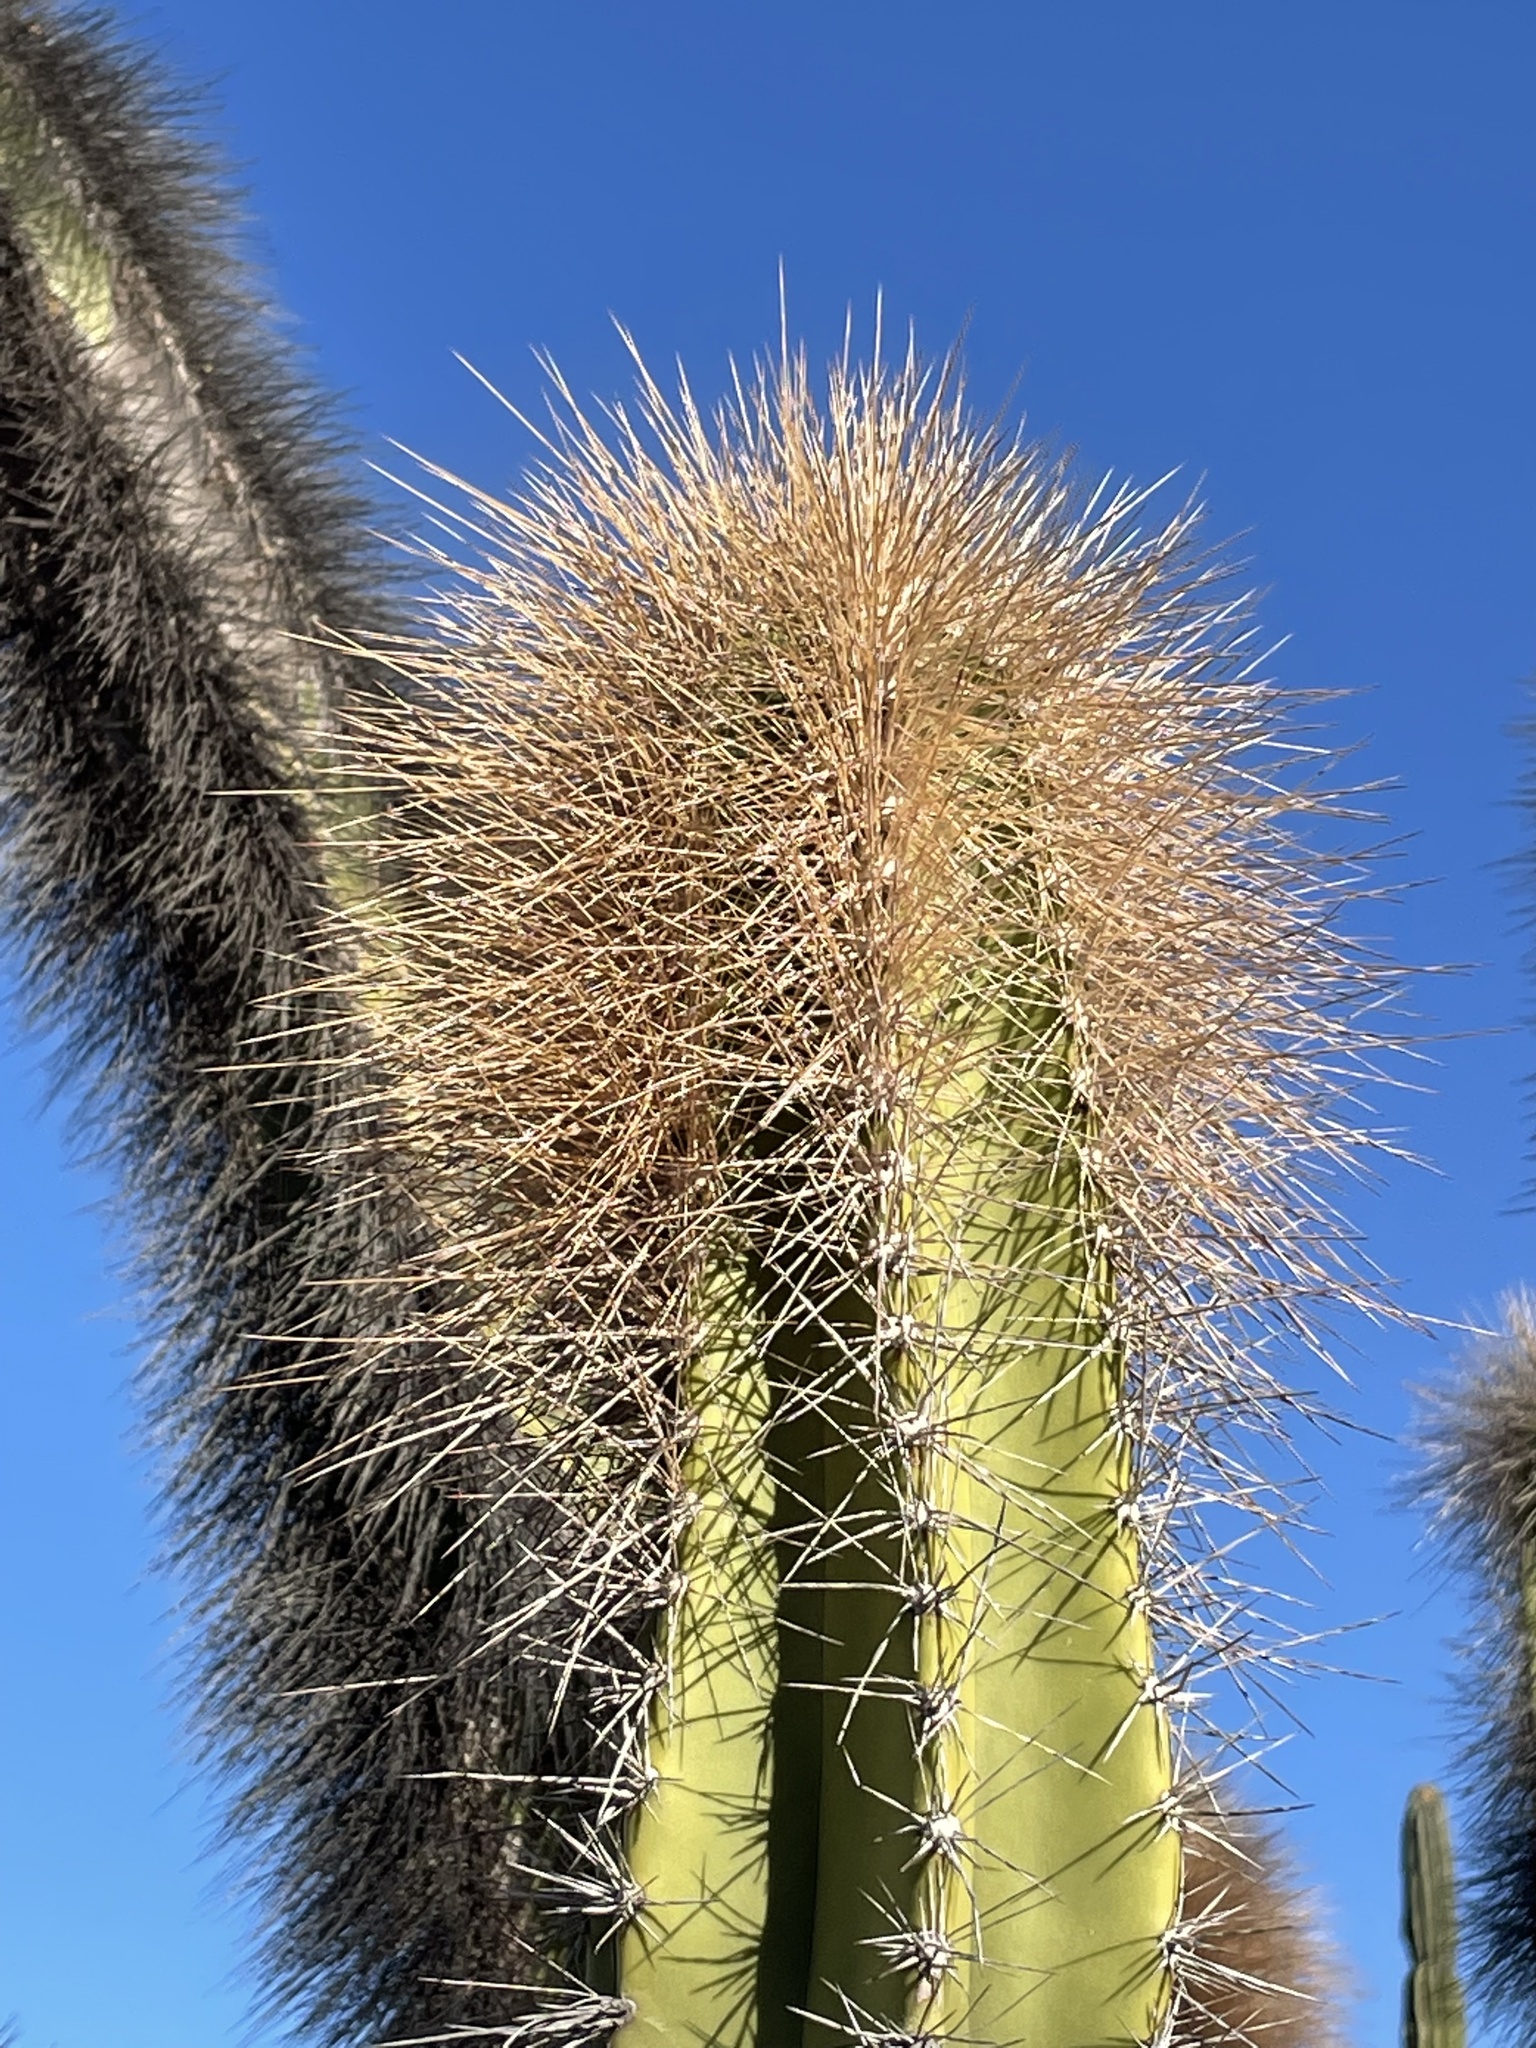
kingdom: Plantae
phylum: Tracheophyta
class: Magnoliopsida
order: Caryophyllales
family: Cactaceae
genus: Pachycereus
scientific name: Pachycereus schottii
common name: Senita cactus
